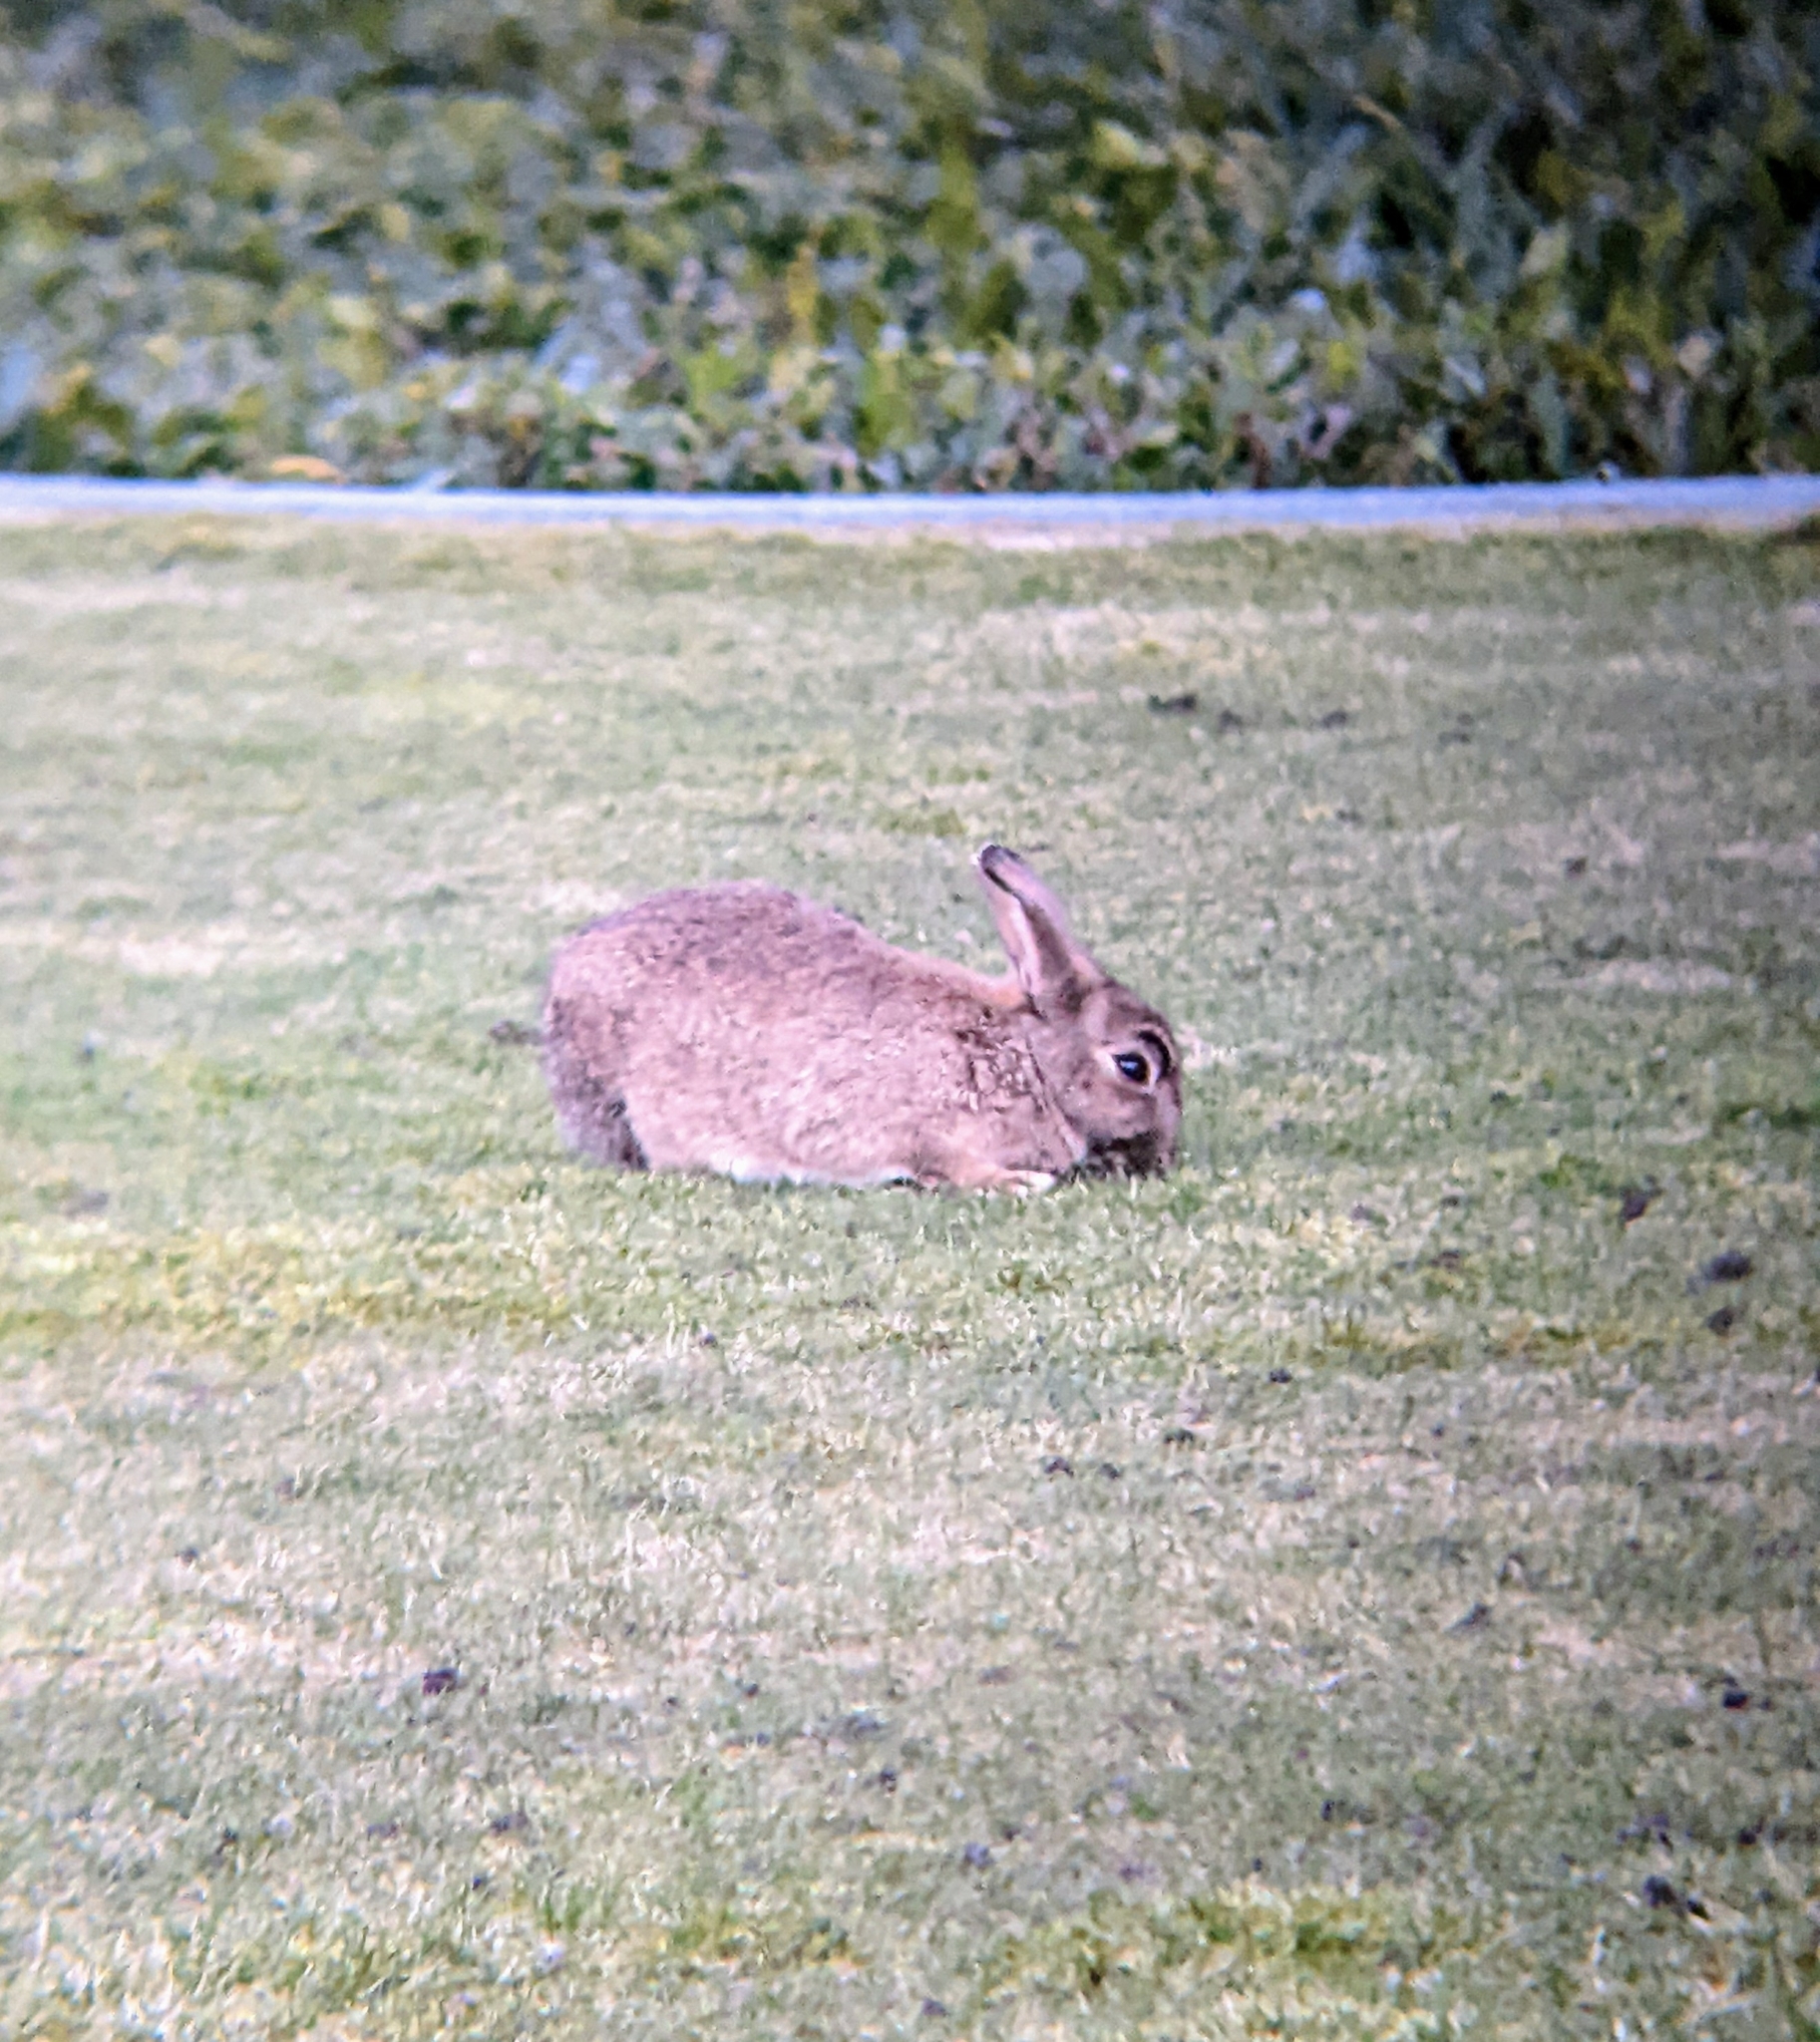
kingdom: Animalia
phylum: Chordata
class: Mammalia
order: Lagomorpha
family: Leporidae
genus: Oryctolagus
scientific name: Oryctolagus cuniculus
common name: European rabbit
